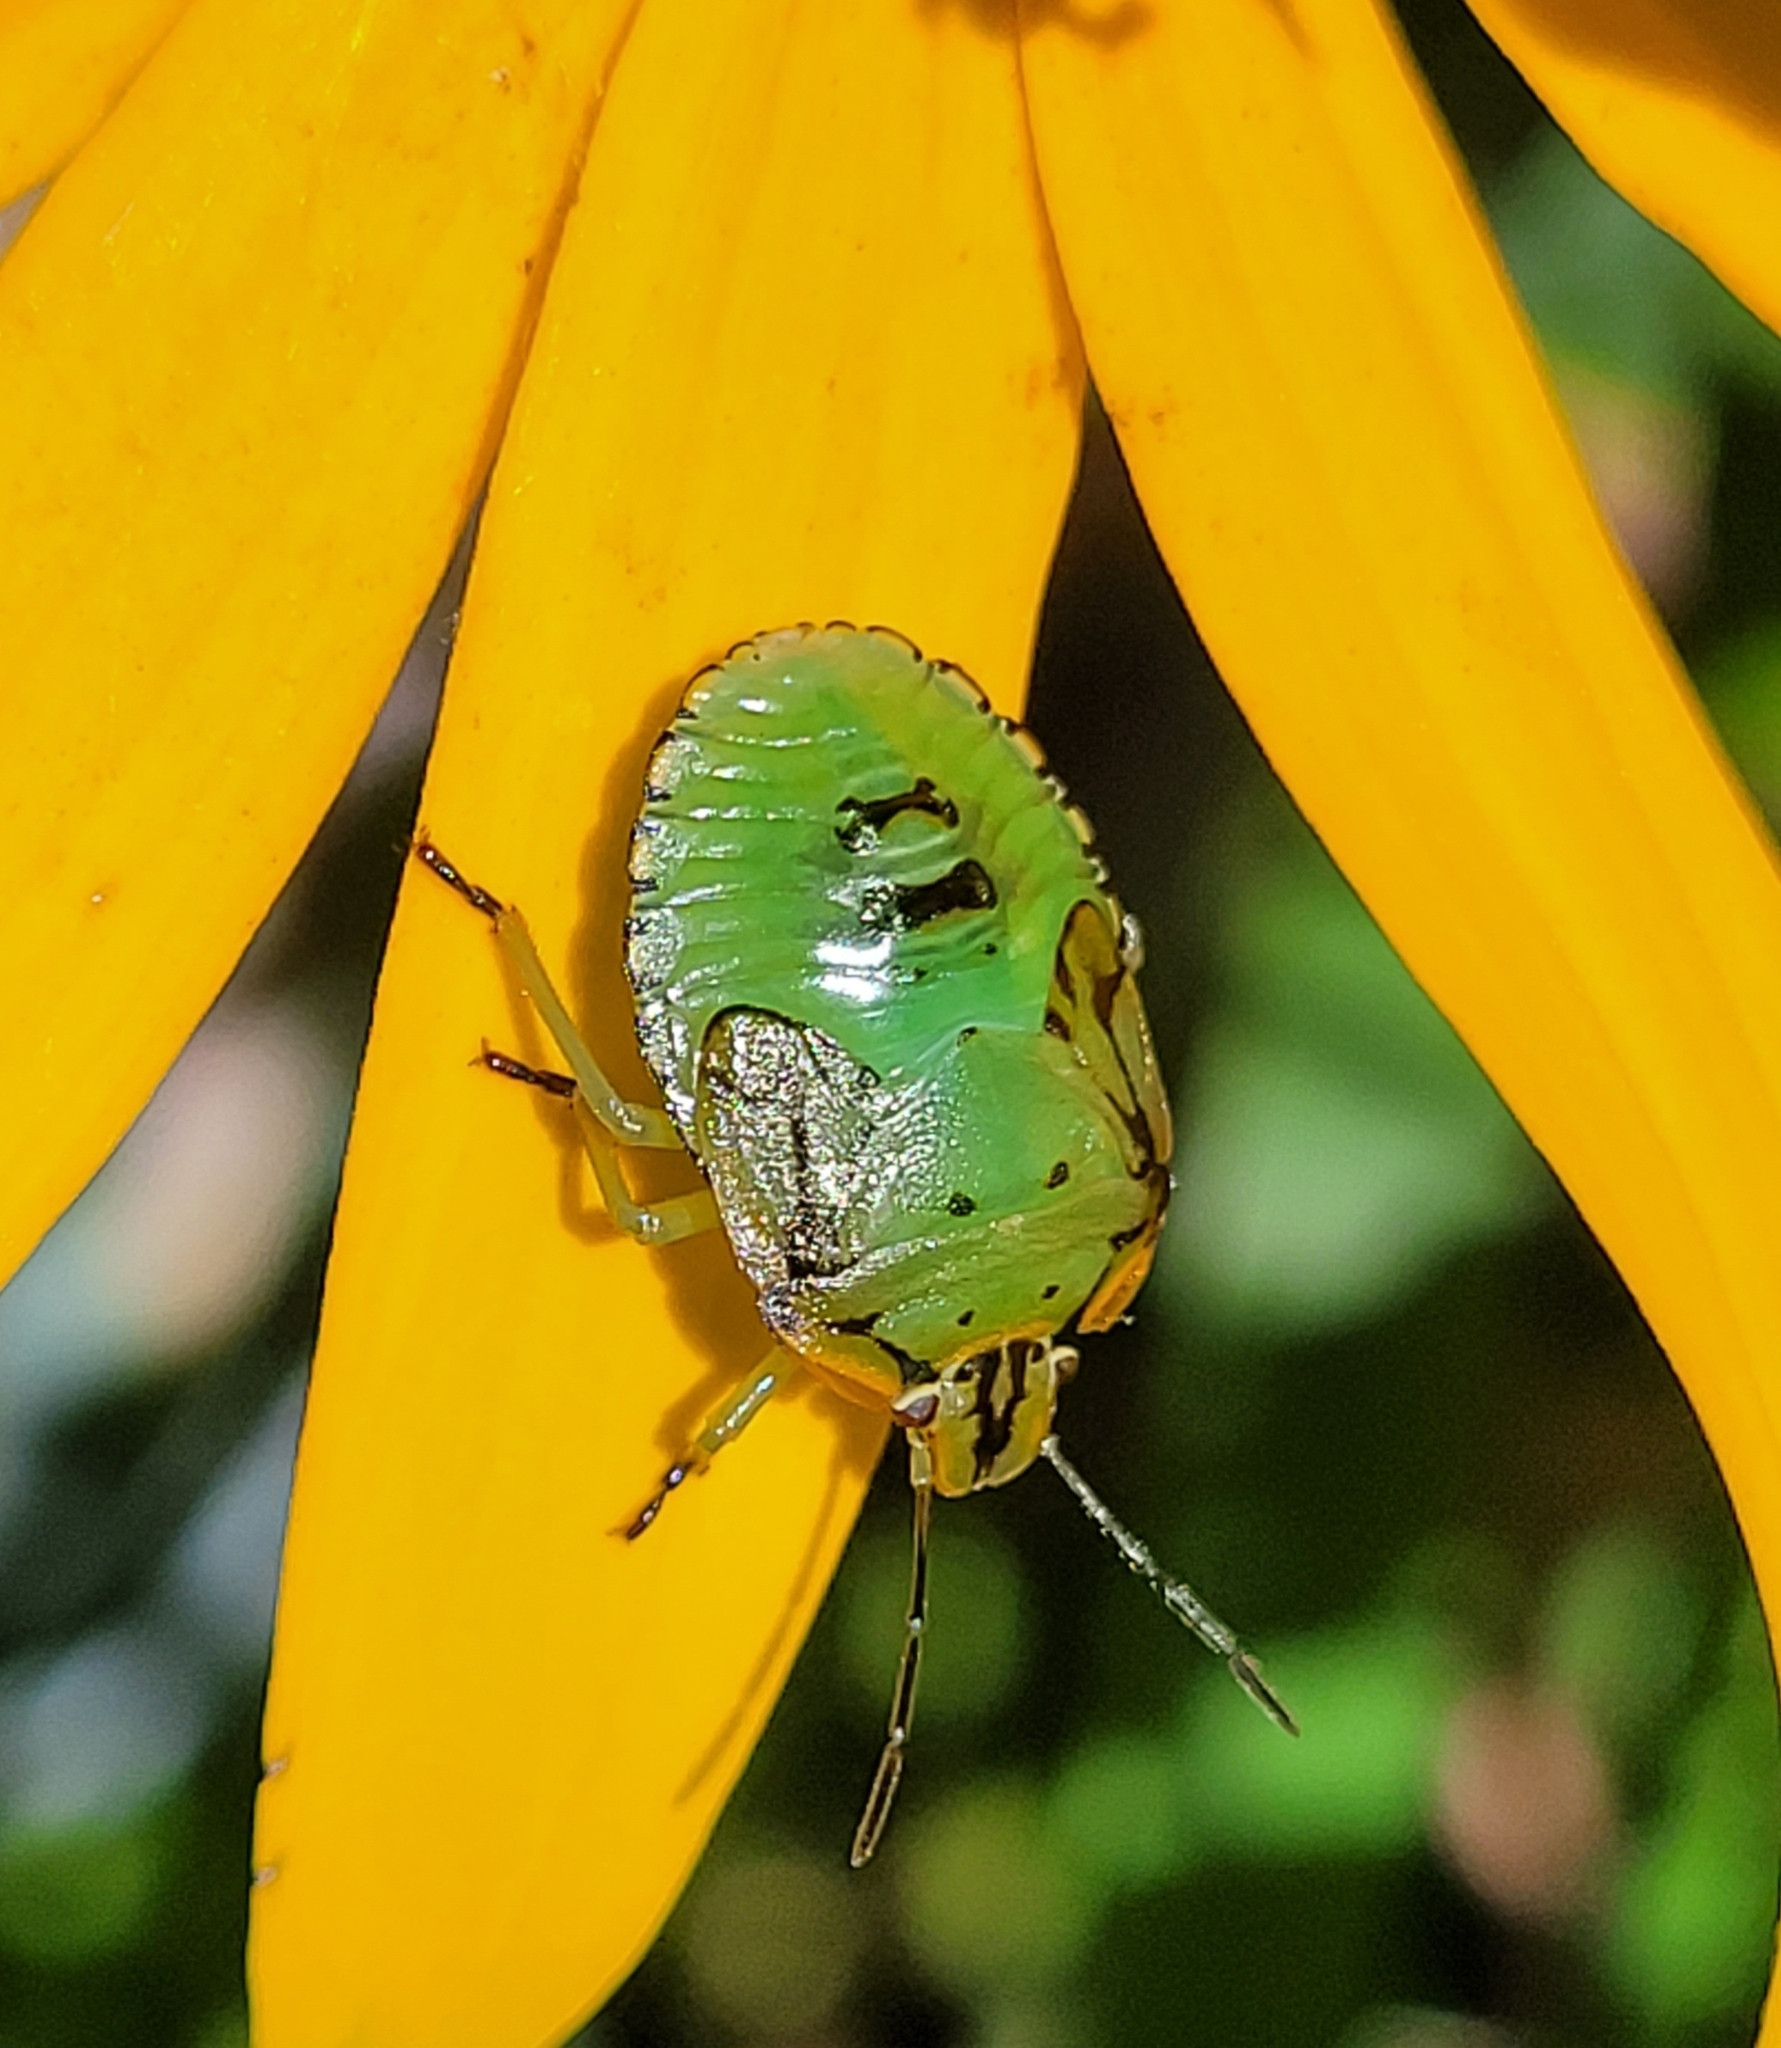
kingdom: Animalia
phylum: Arthropoda
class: Insecta
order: Hemiptera
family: Pentatomidae
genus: Chinavia
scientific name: Chinavia hilaris
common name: Green stink bug
